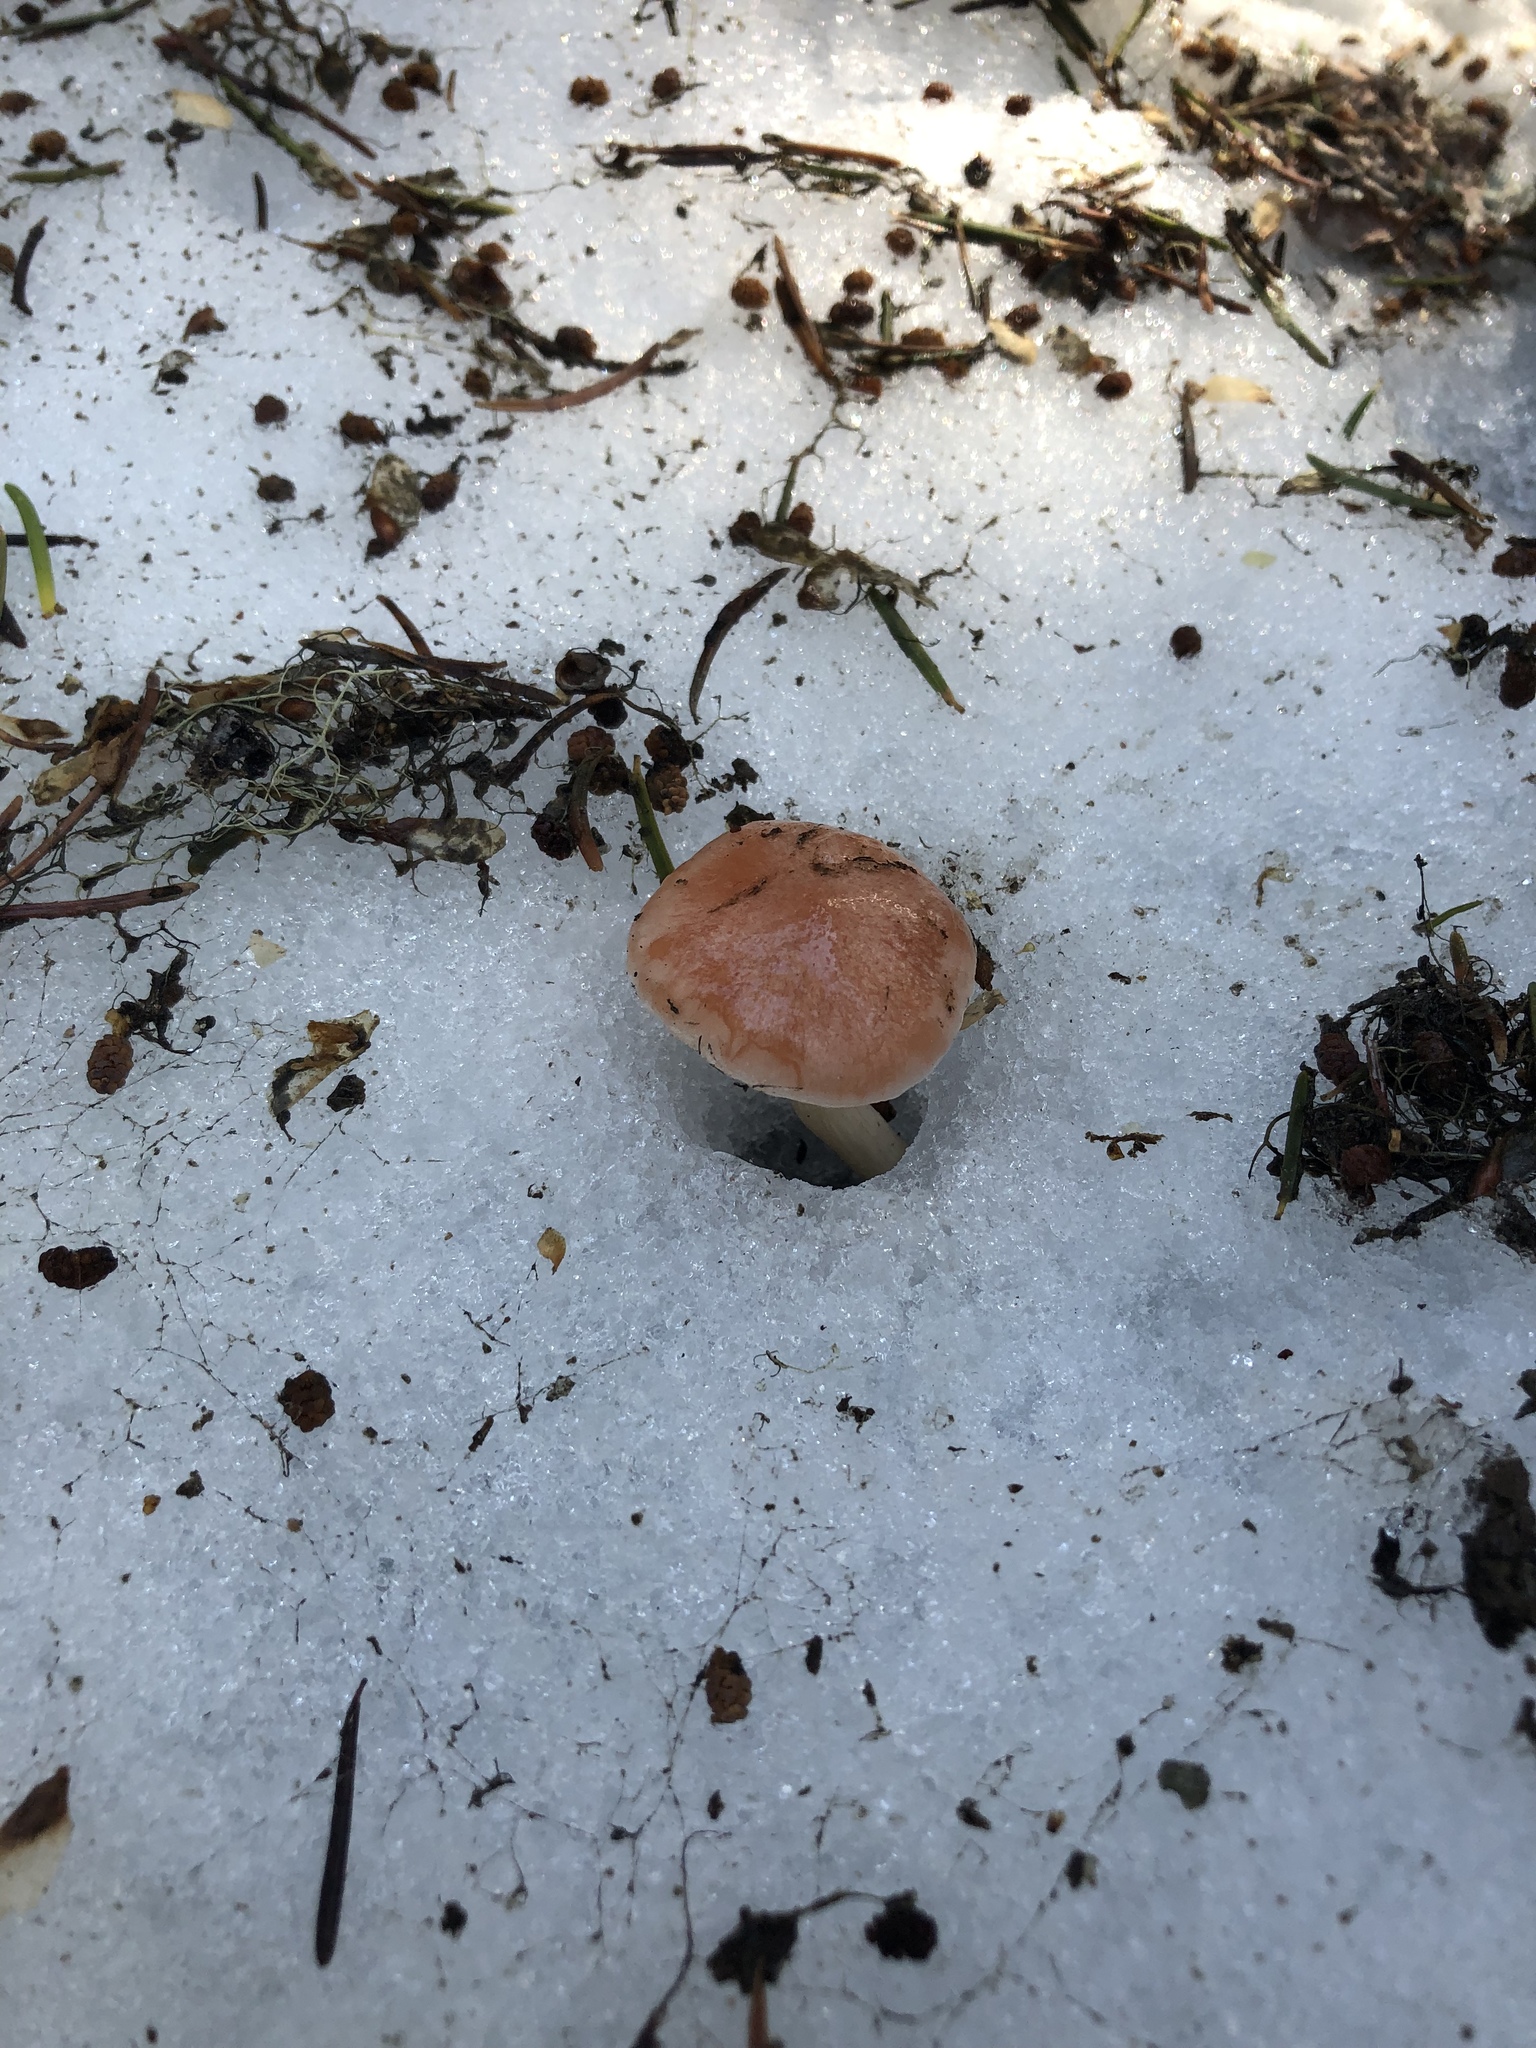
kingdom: Fungi
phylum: Basidiomycota
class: Agaricomycetes
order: Agaricales
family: Hygrophoraceae
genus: Hygrophorus
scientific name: Hygrophorus goetzei
